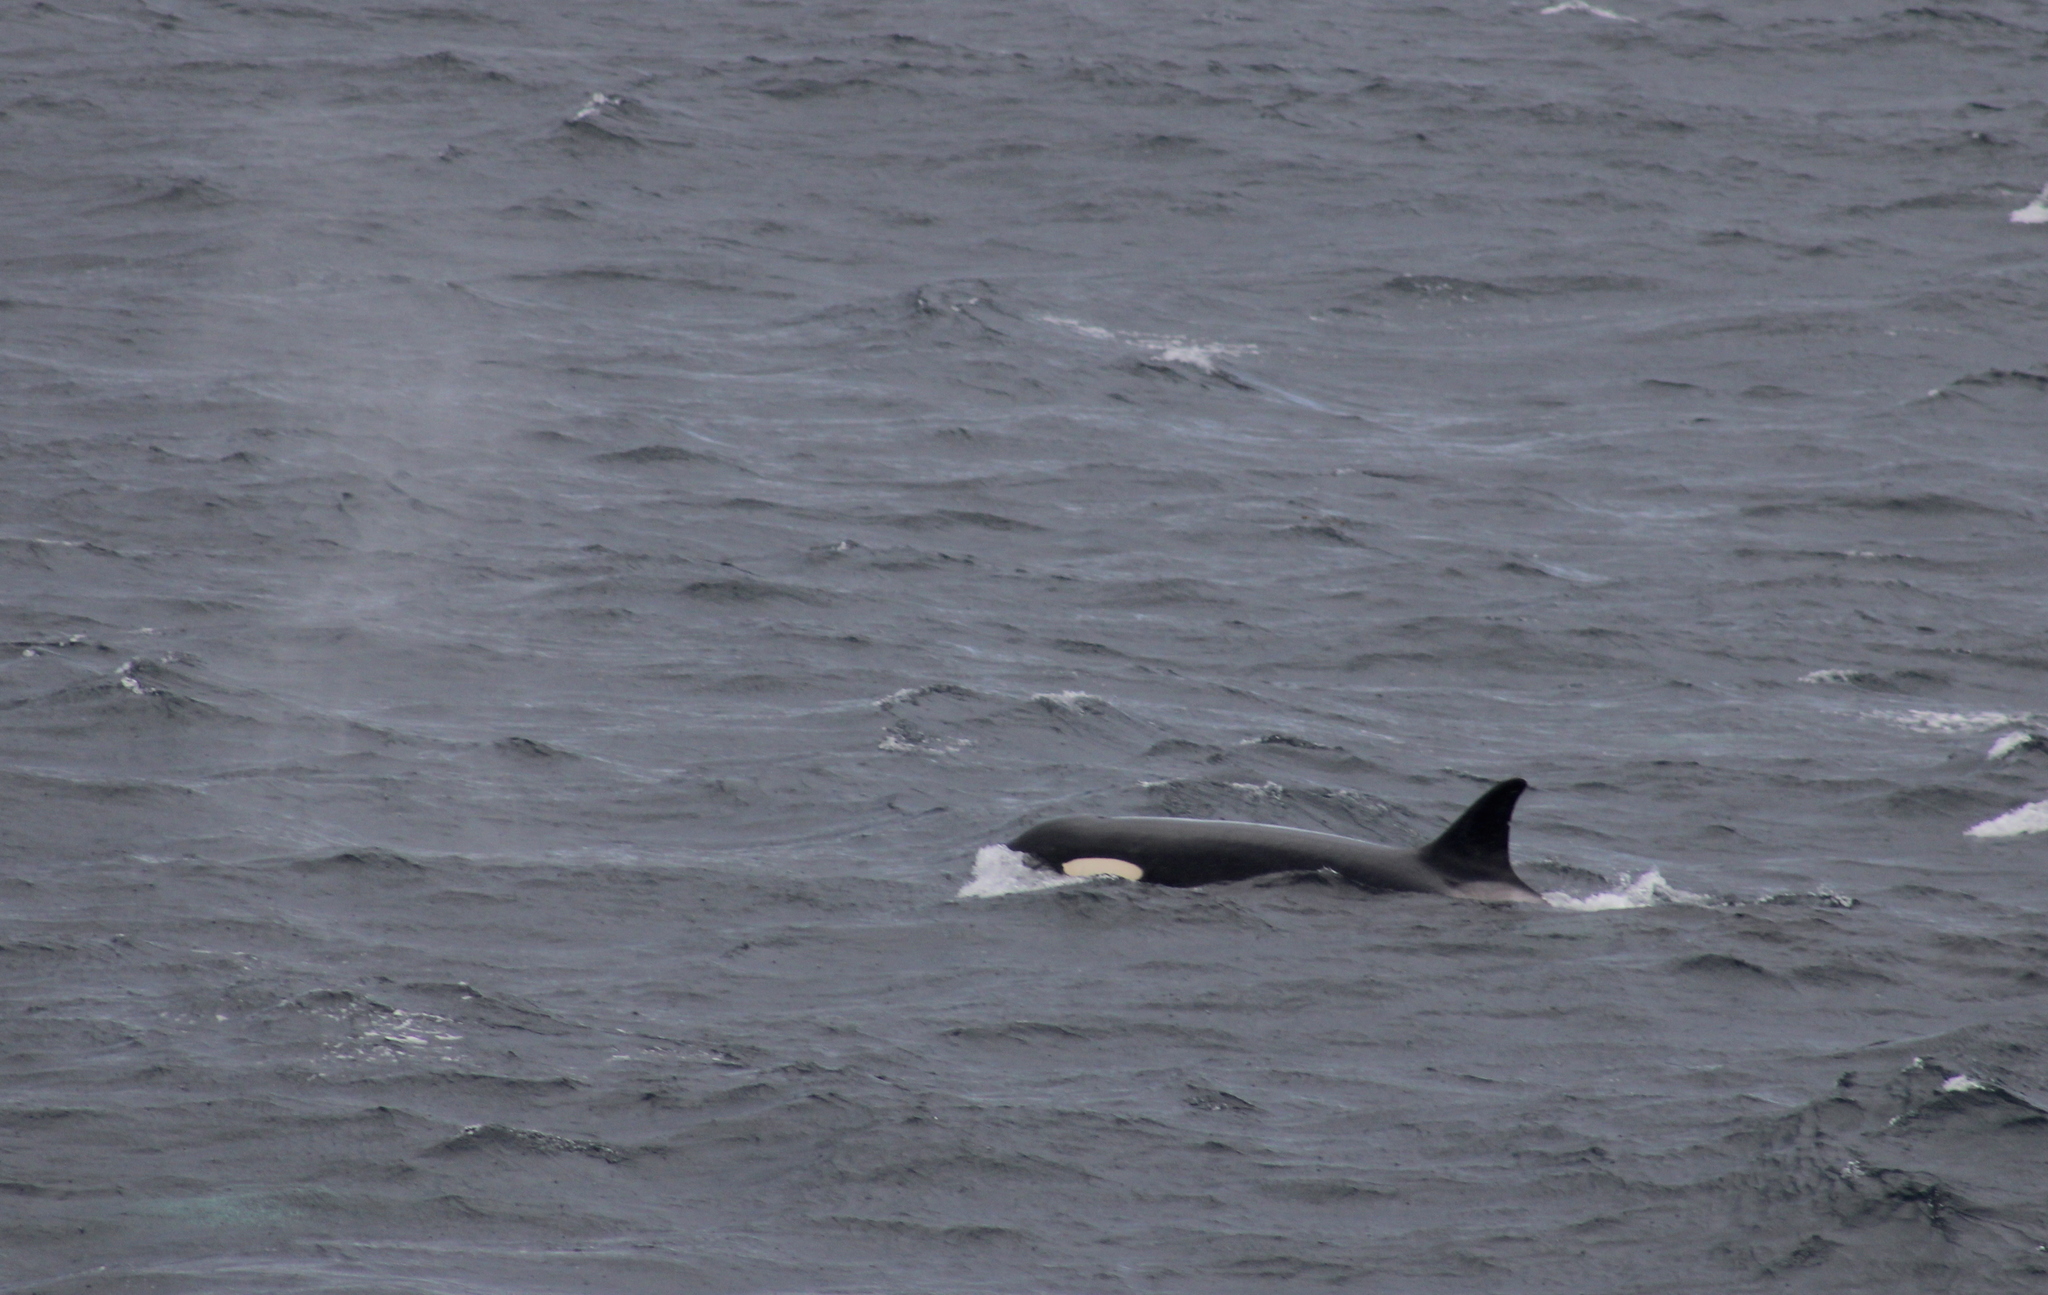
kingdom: Animalia
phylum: Chordata
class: Mammalia
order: Cetacea
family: Delphinidae
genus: Orcinus
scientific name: Orcinus orca
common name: Killer whale
